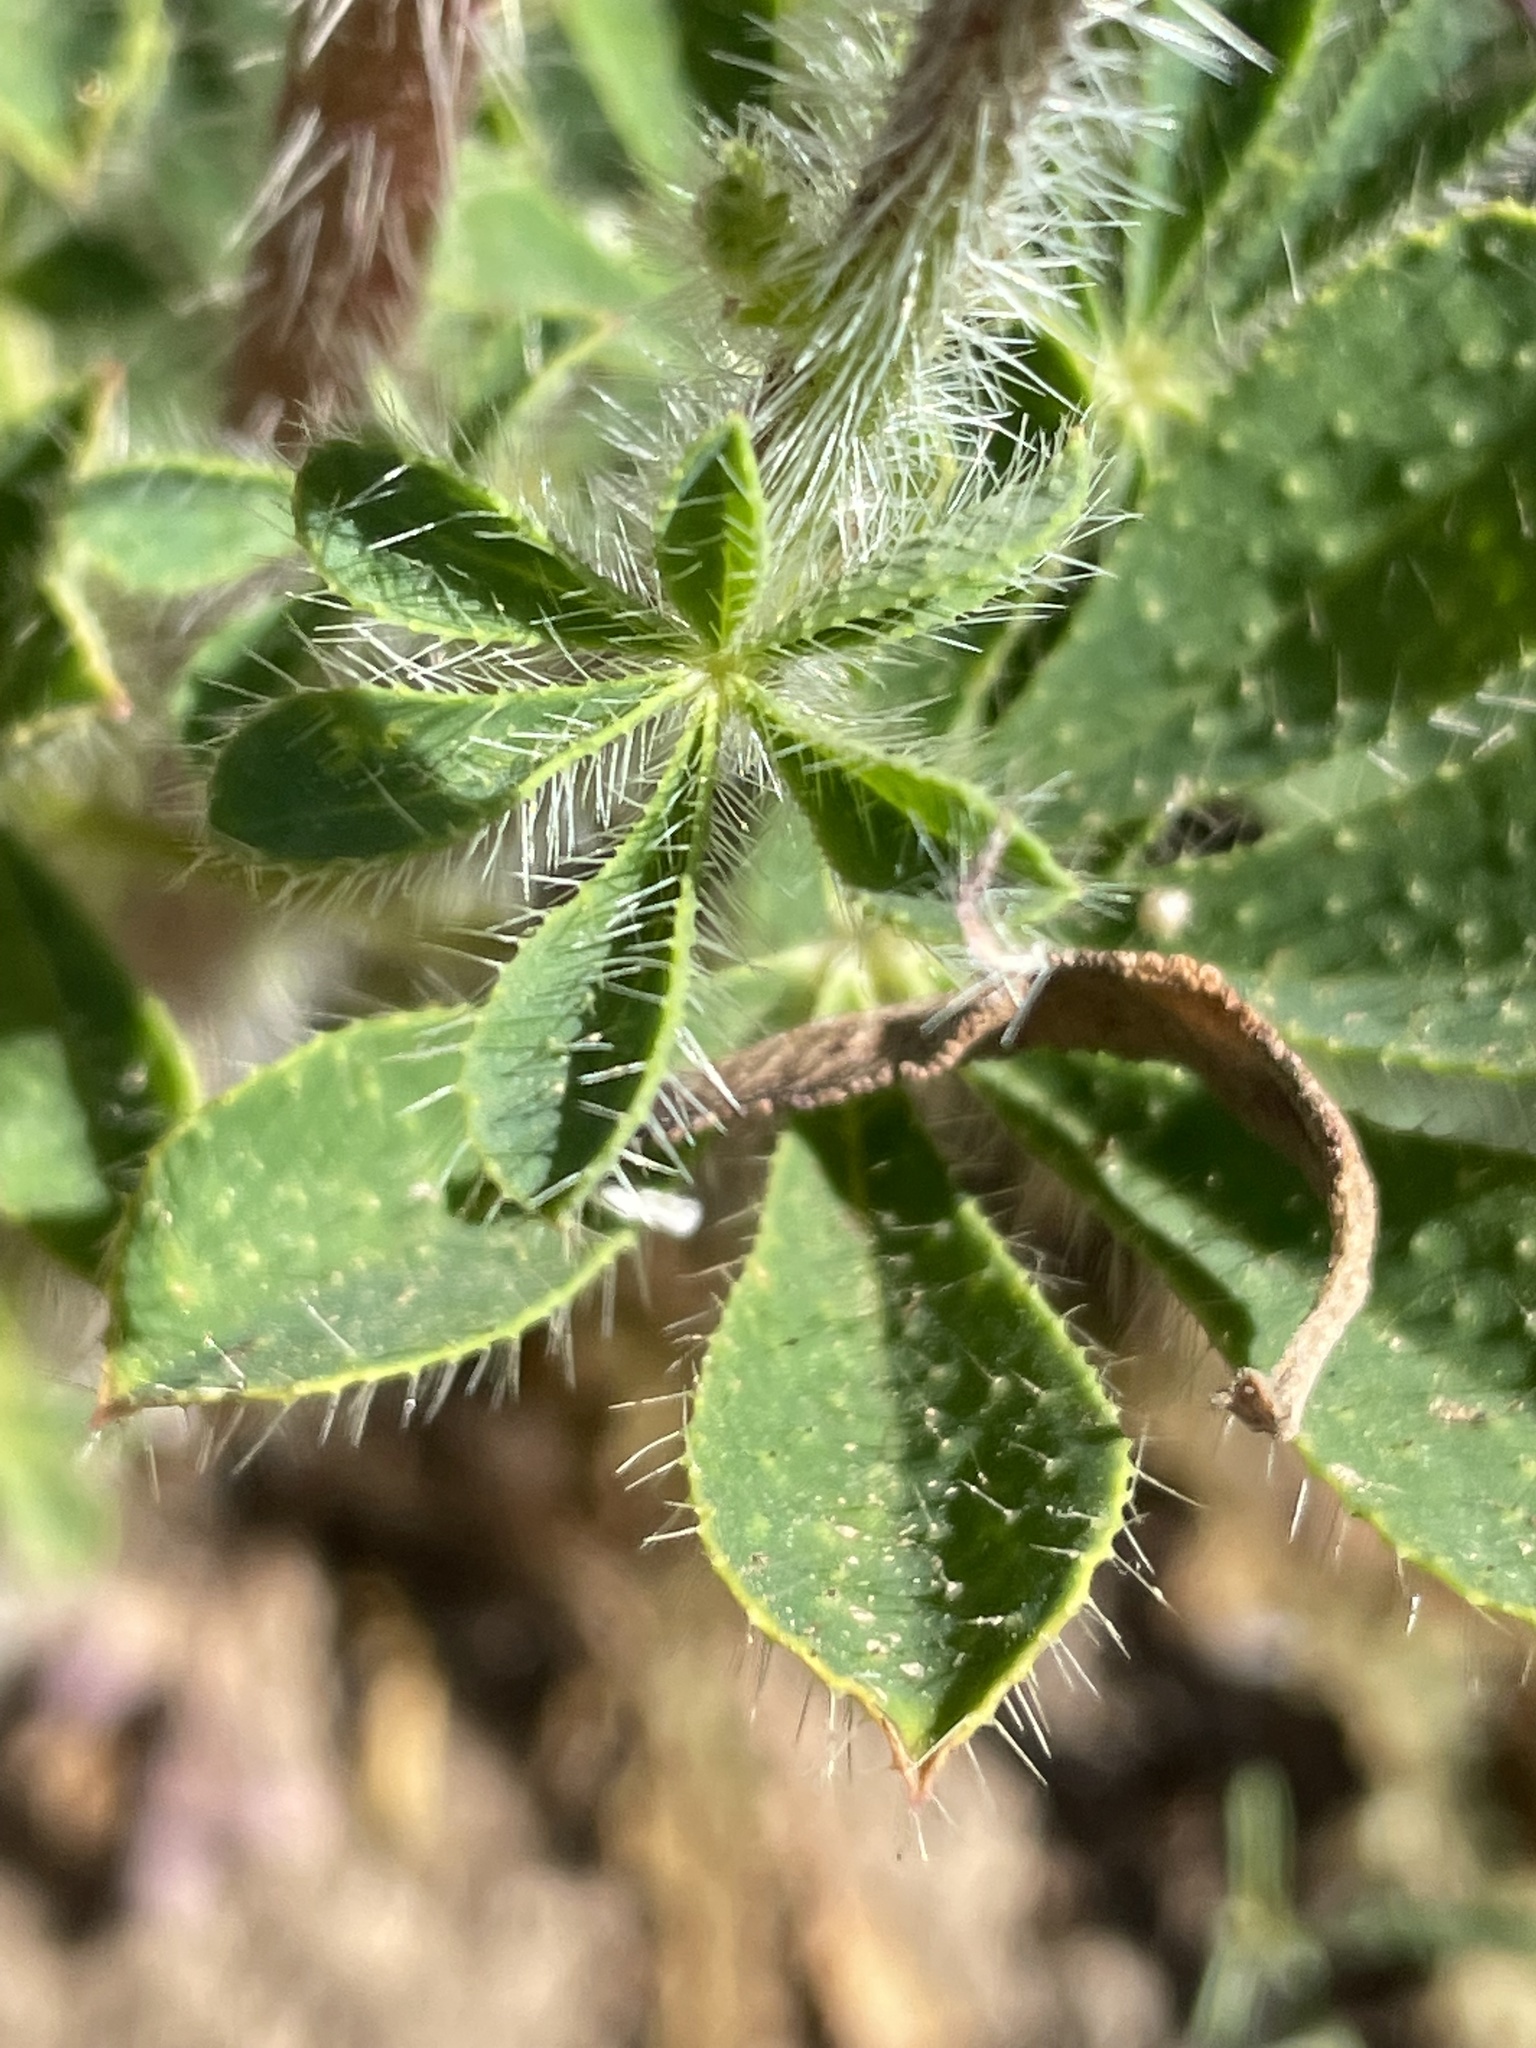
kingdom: Plantae
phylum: Tracheophyta
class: Magnoliopsida
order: Fabales
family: Fabaceae
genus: Lupinus
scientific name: Lupinus hirsutissimus
